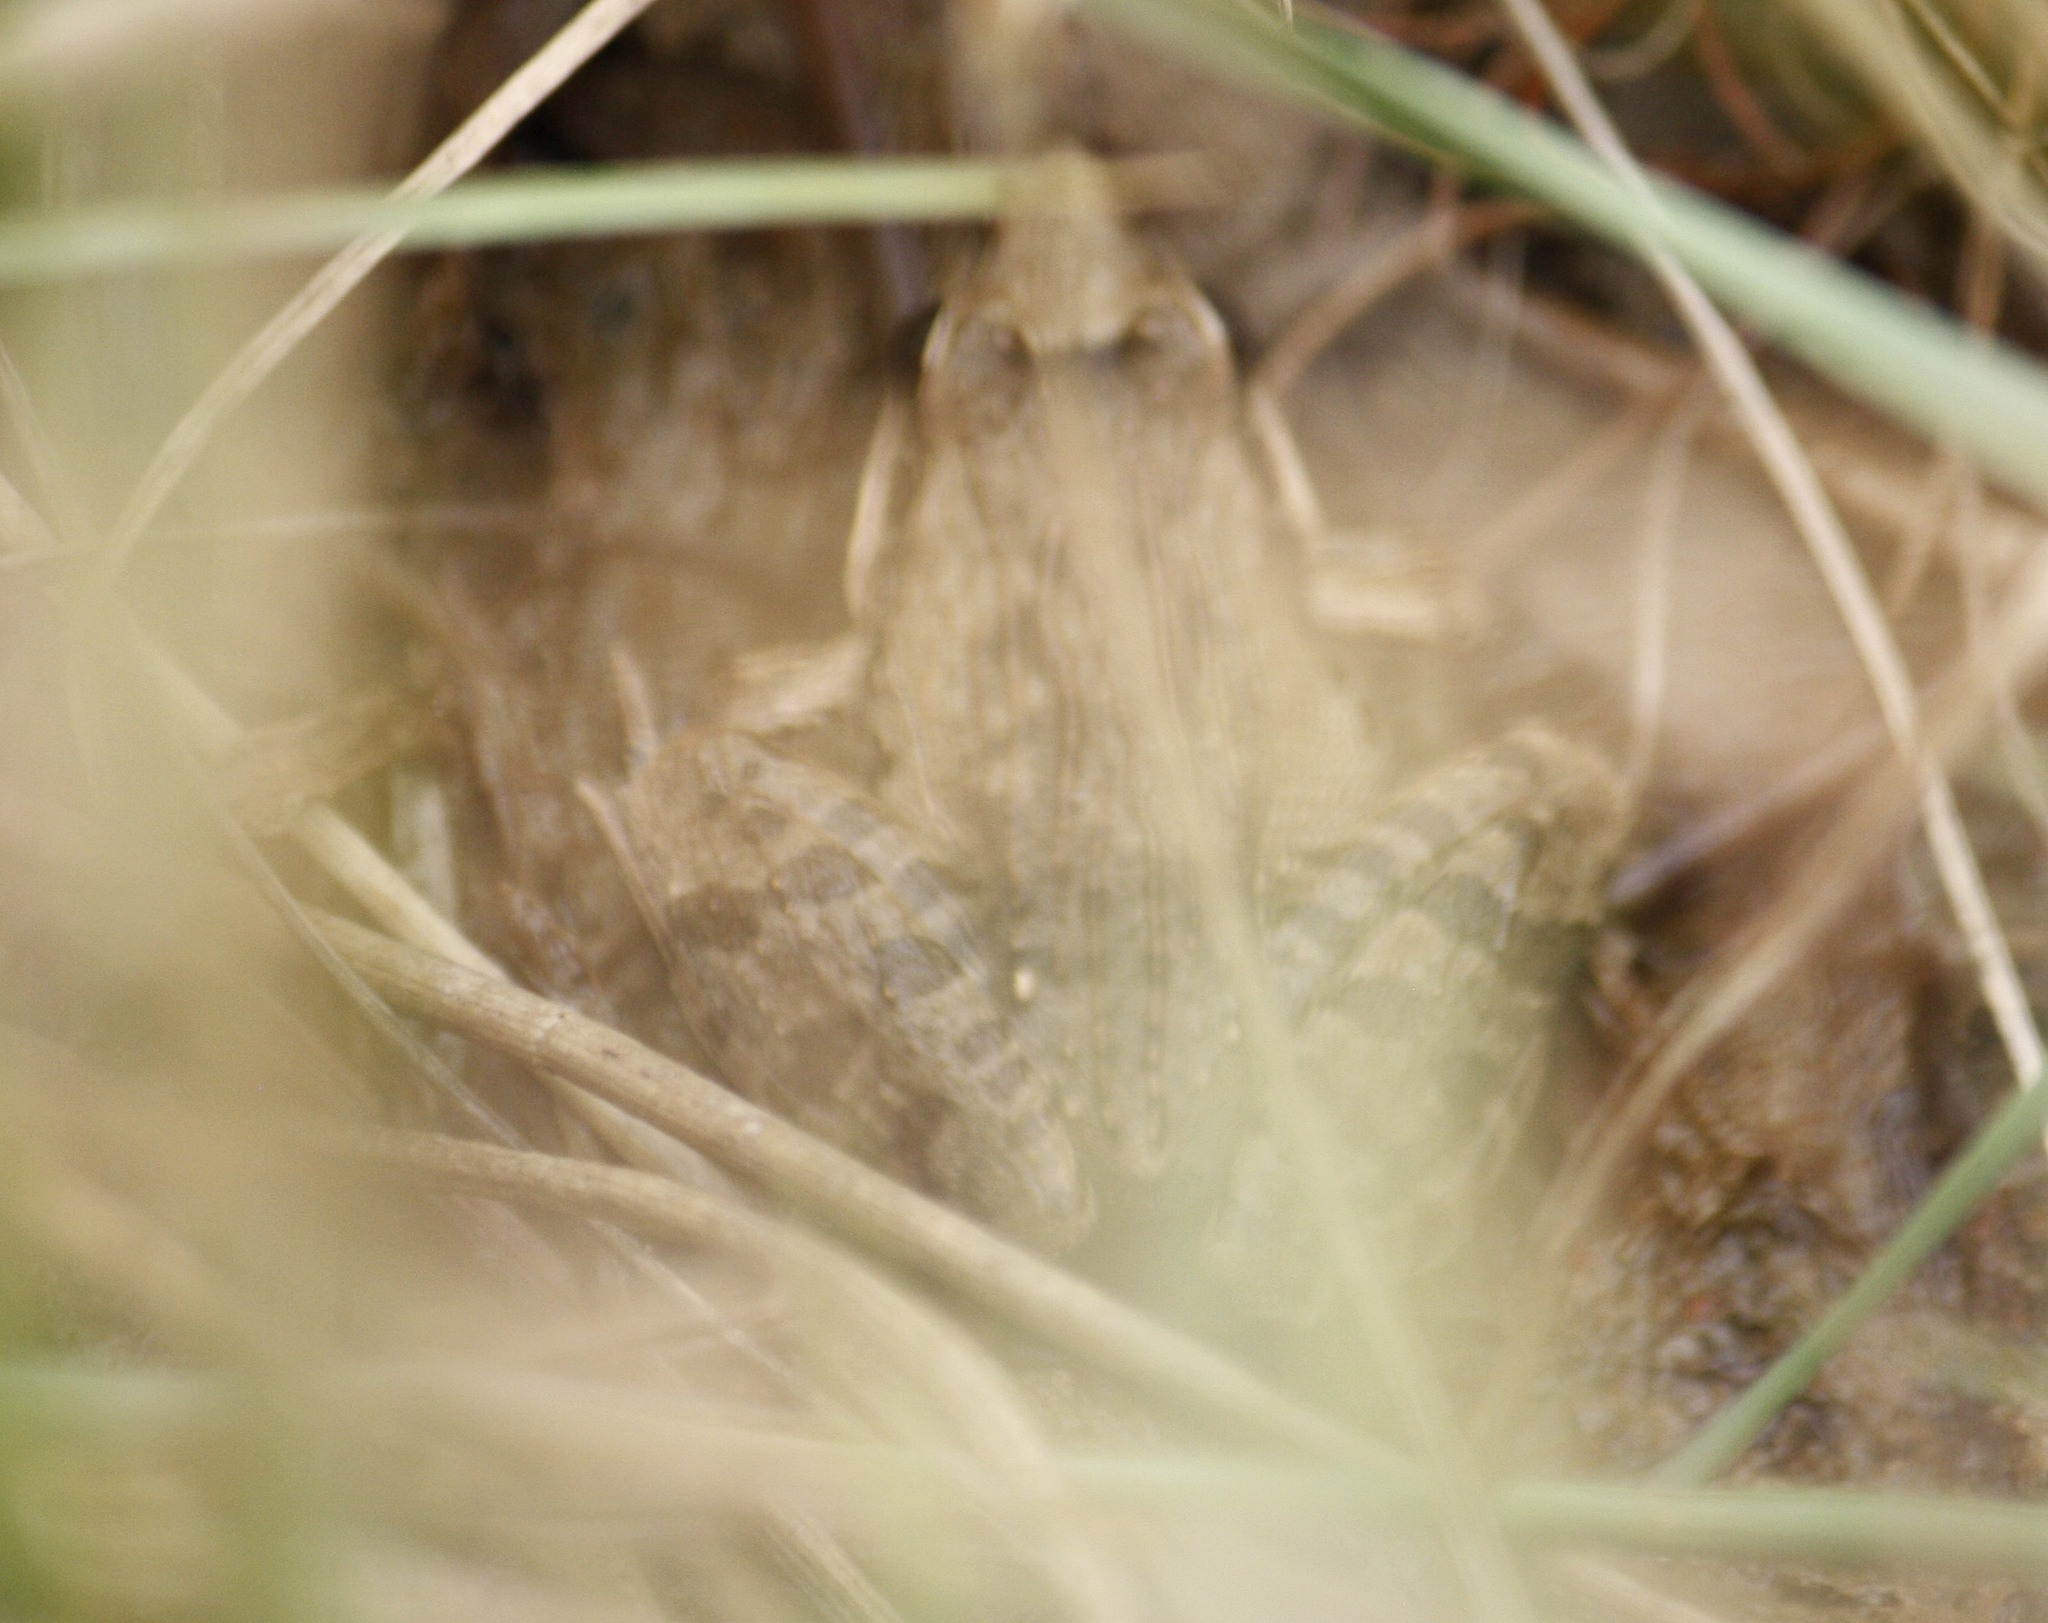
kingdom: Animalia
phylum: Chordata
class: Amphibia
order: Anura
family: Ptychadenidae
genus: Ptychadena
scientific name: Ptychadena anchietae
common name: Anchieta's ridged frog
